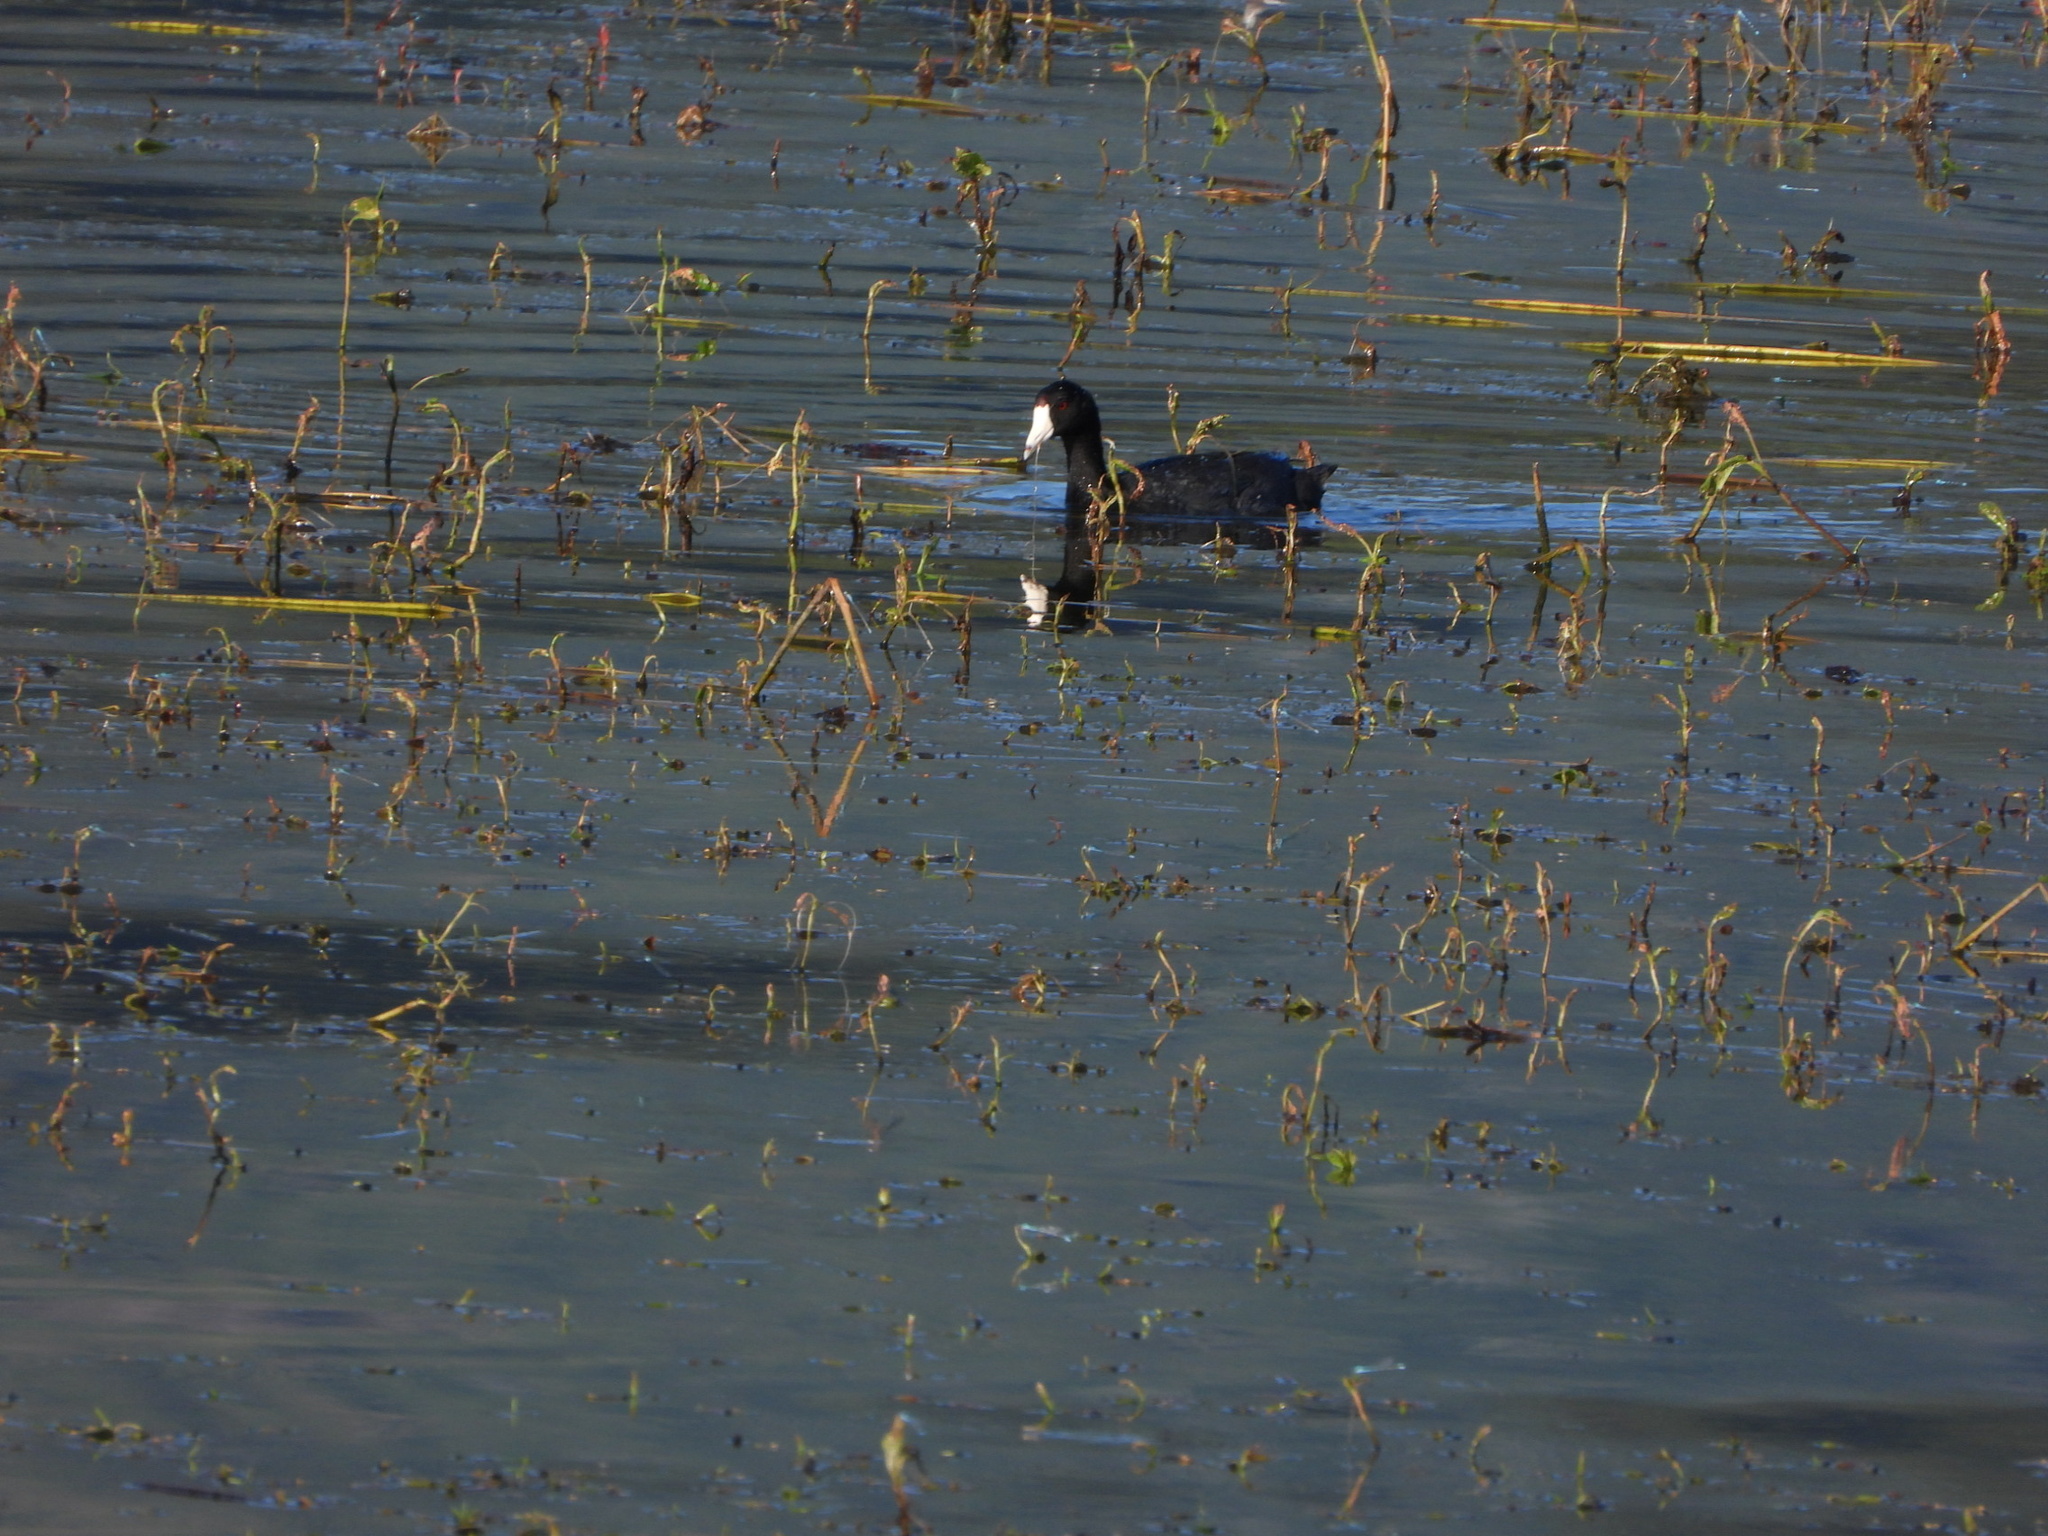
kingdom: Animalia
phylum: Chordata
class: Aves
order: Gruiformes
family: Rallidae
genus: Fulica
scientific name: Fulica americana
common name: American coot
